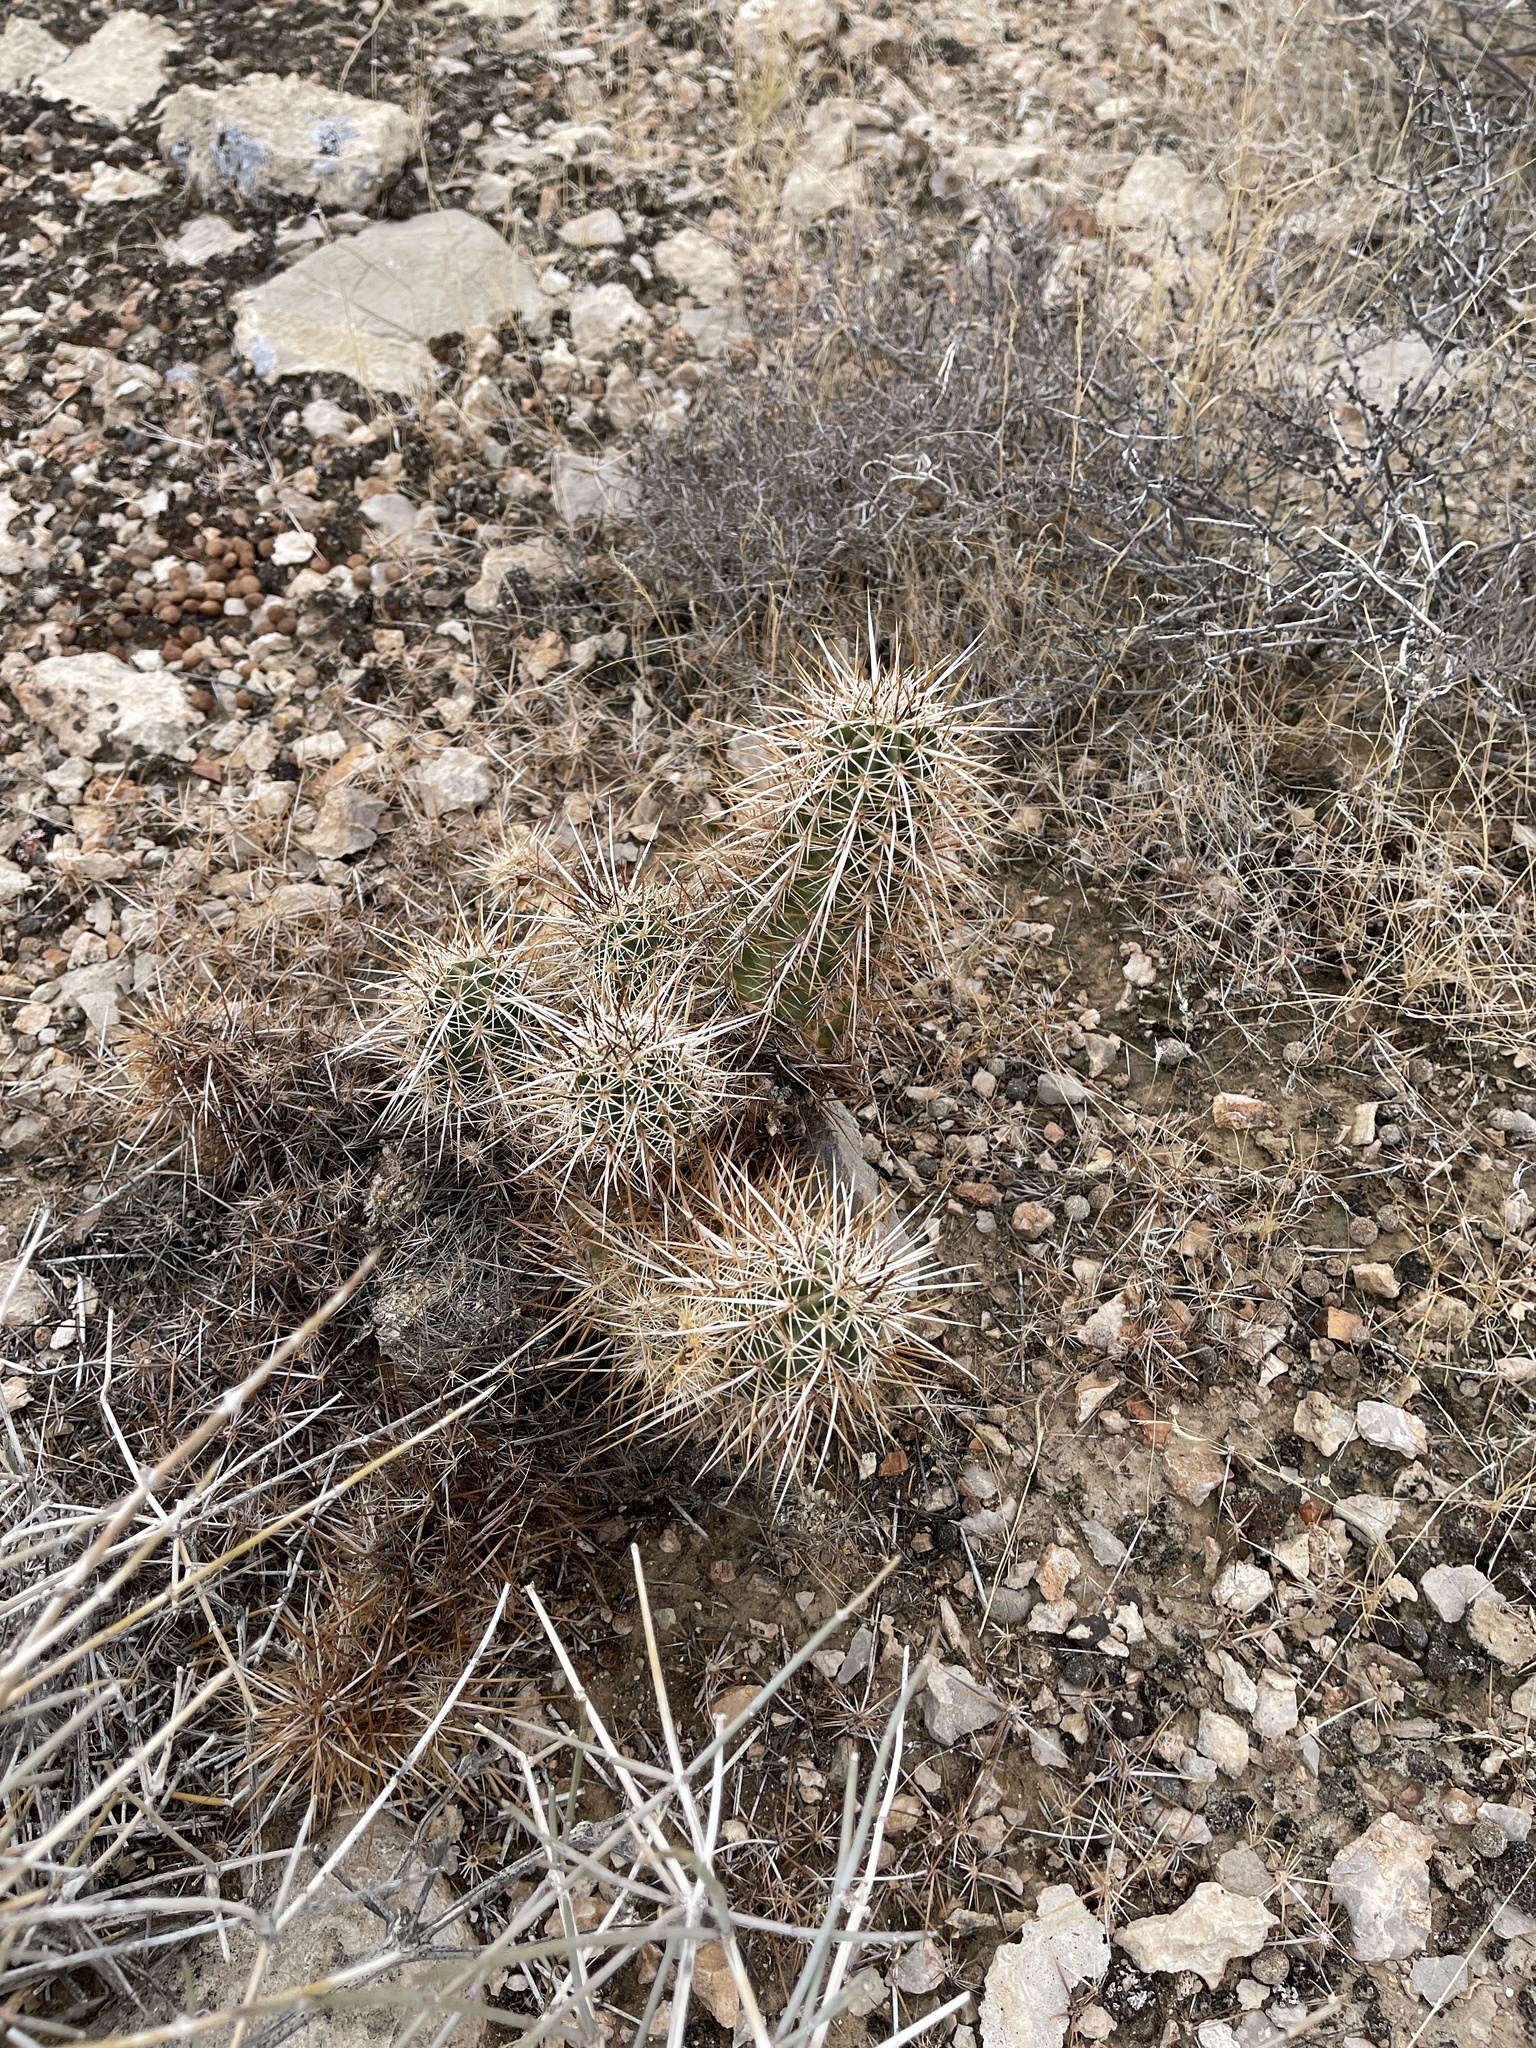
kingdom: Plantae
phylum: Tracheophyta
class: Magnoliopsida
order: Caryophyllales
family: Cactaceae
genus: Echinocereus
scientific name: Echinocereus engelmannii
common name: Engelmann's hedgehog cactus
